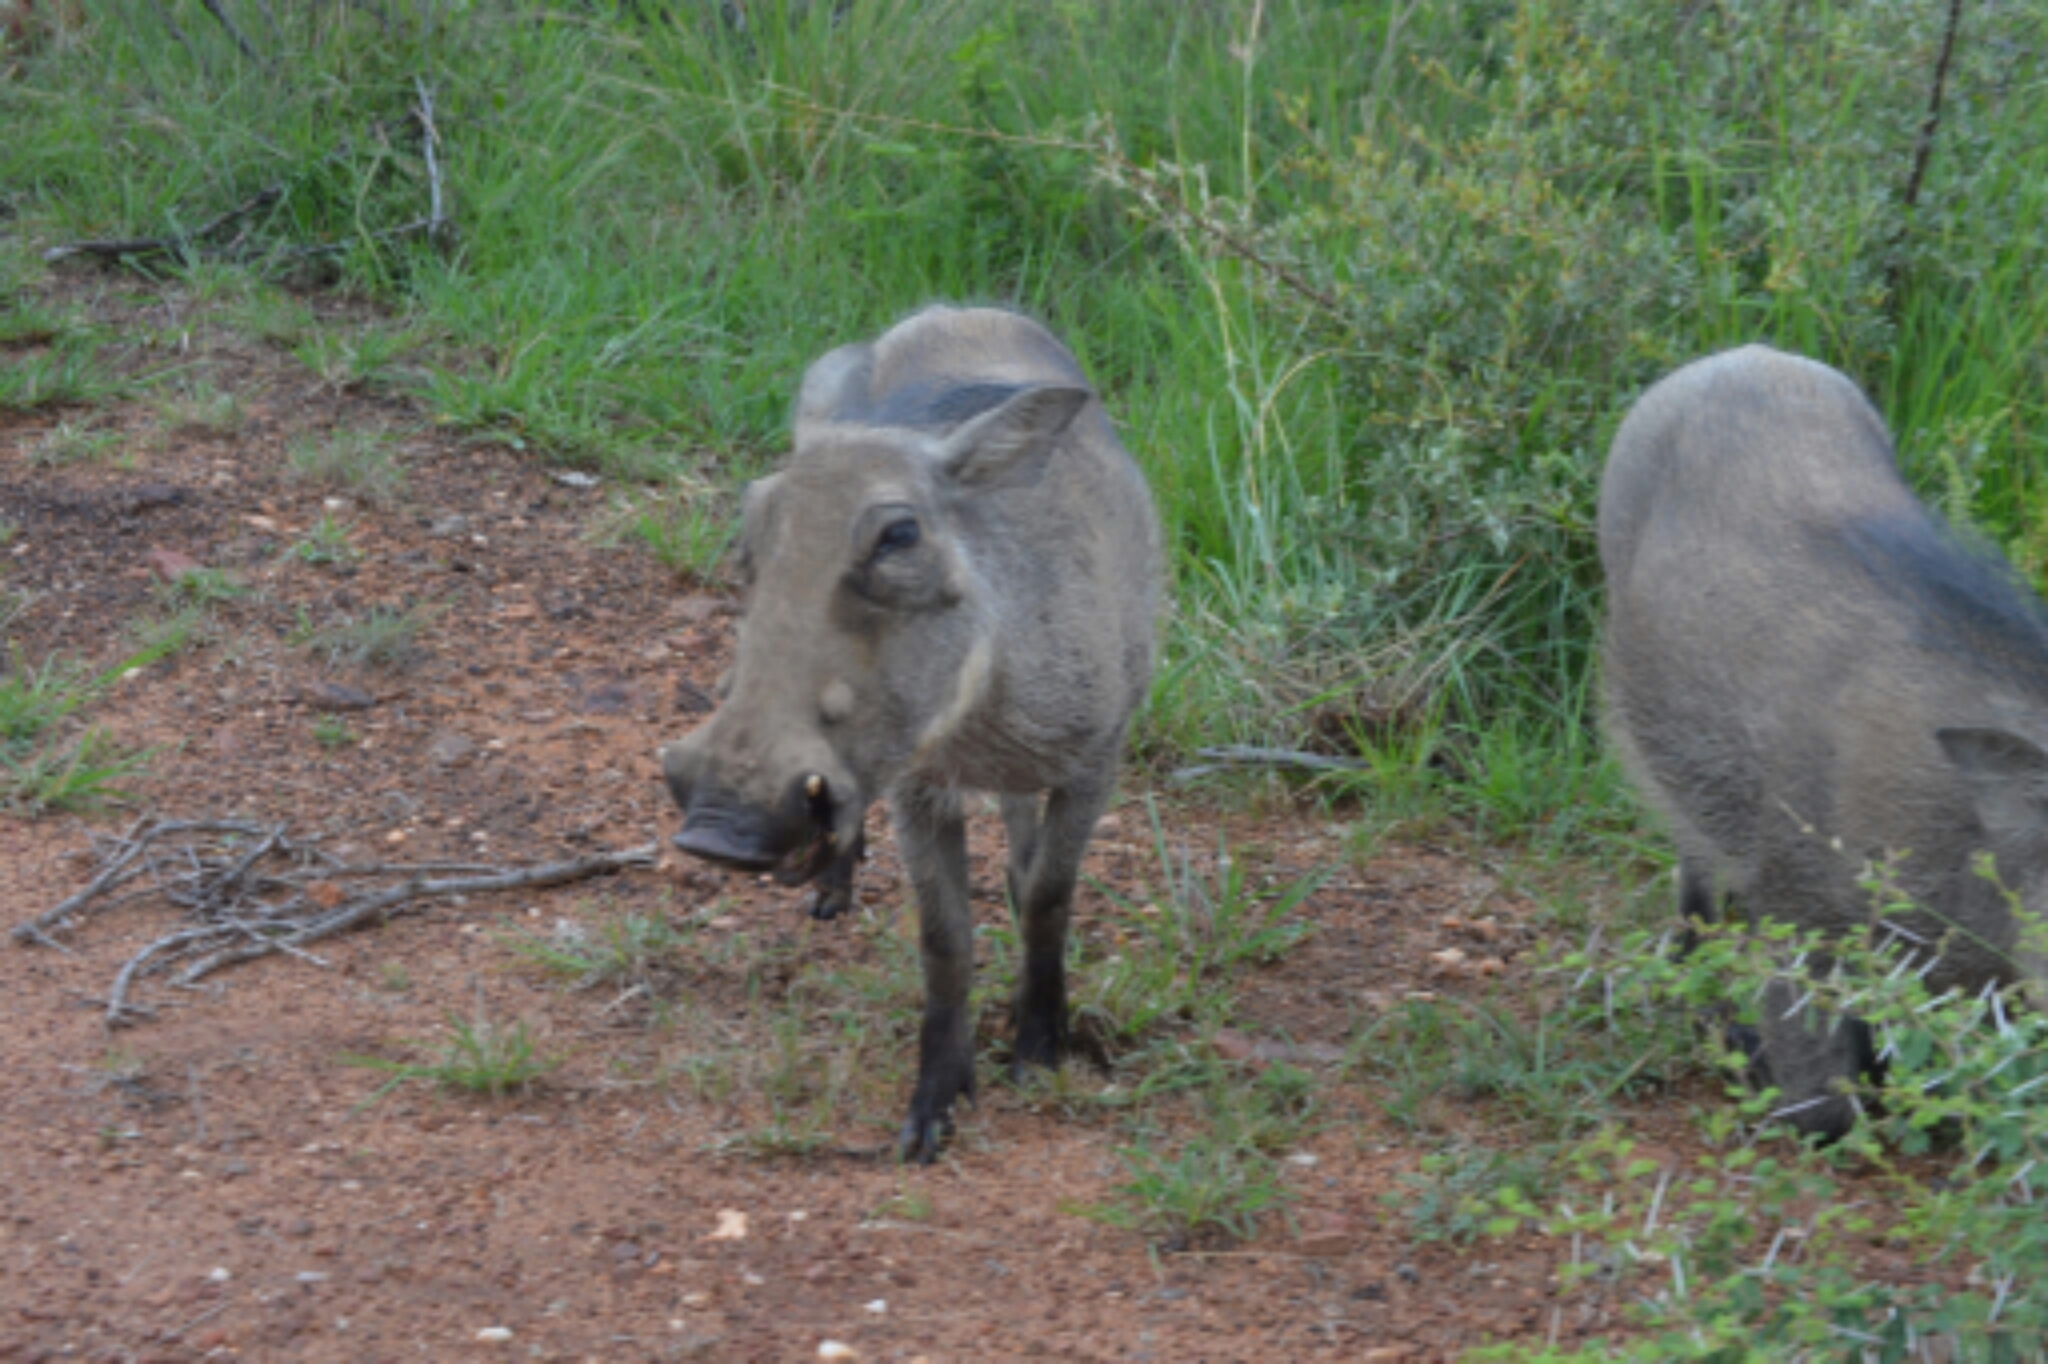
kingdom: Animalia
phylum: Chordata
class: Mammalia
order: Artiodactyla
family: Suidae
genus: Phacochoerus
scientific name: Phacochoerus africanus
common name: Common warthog
